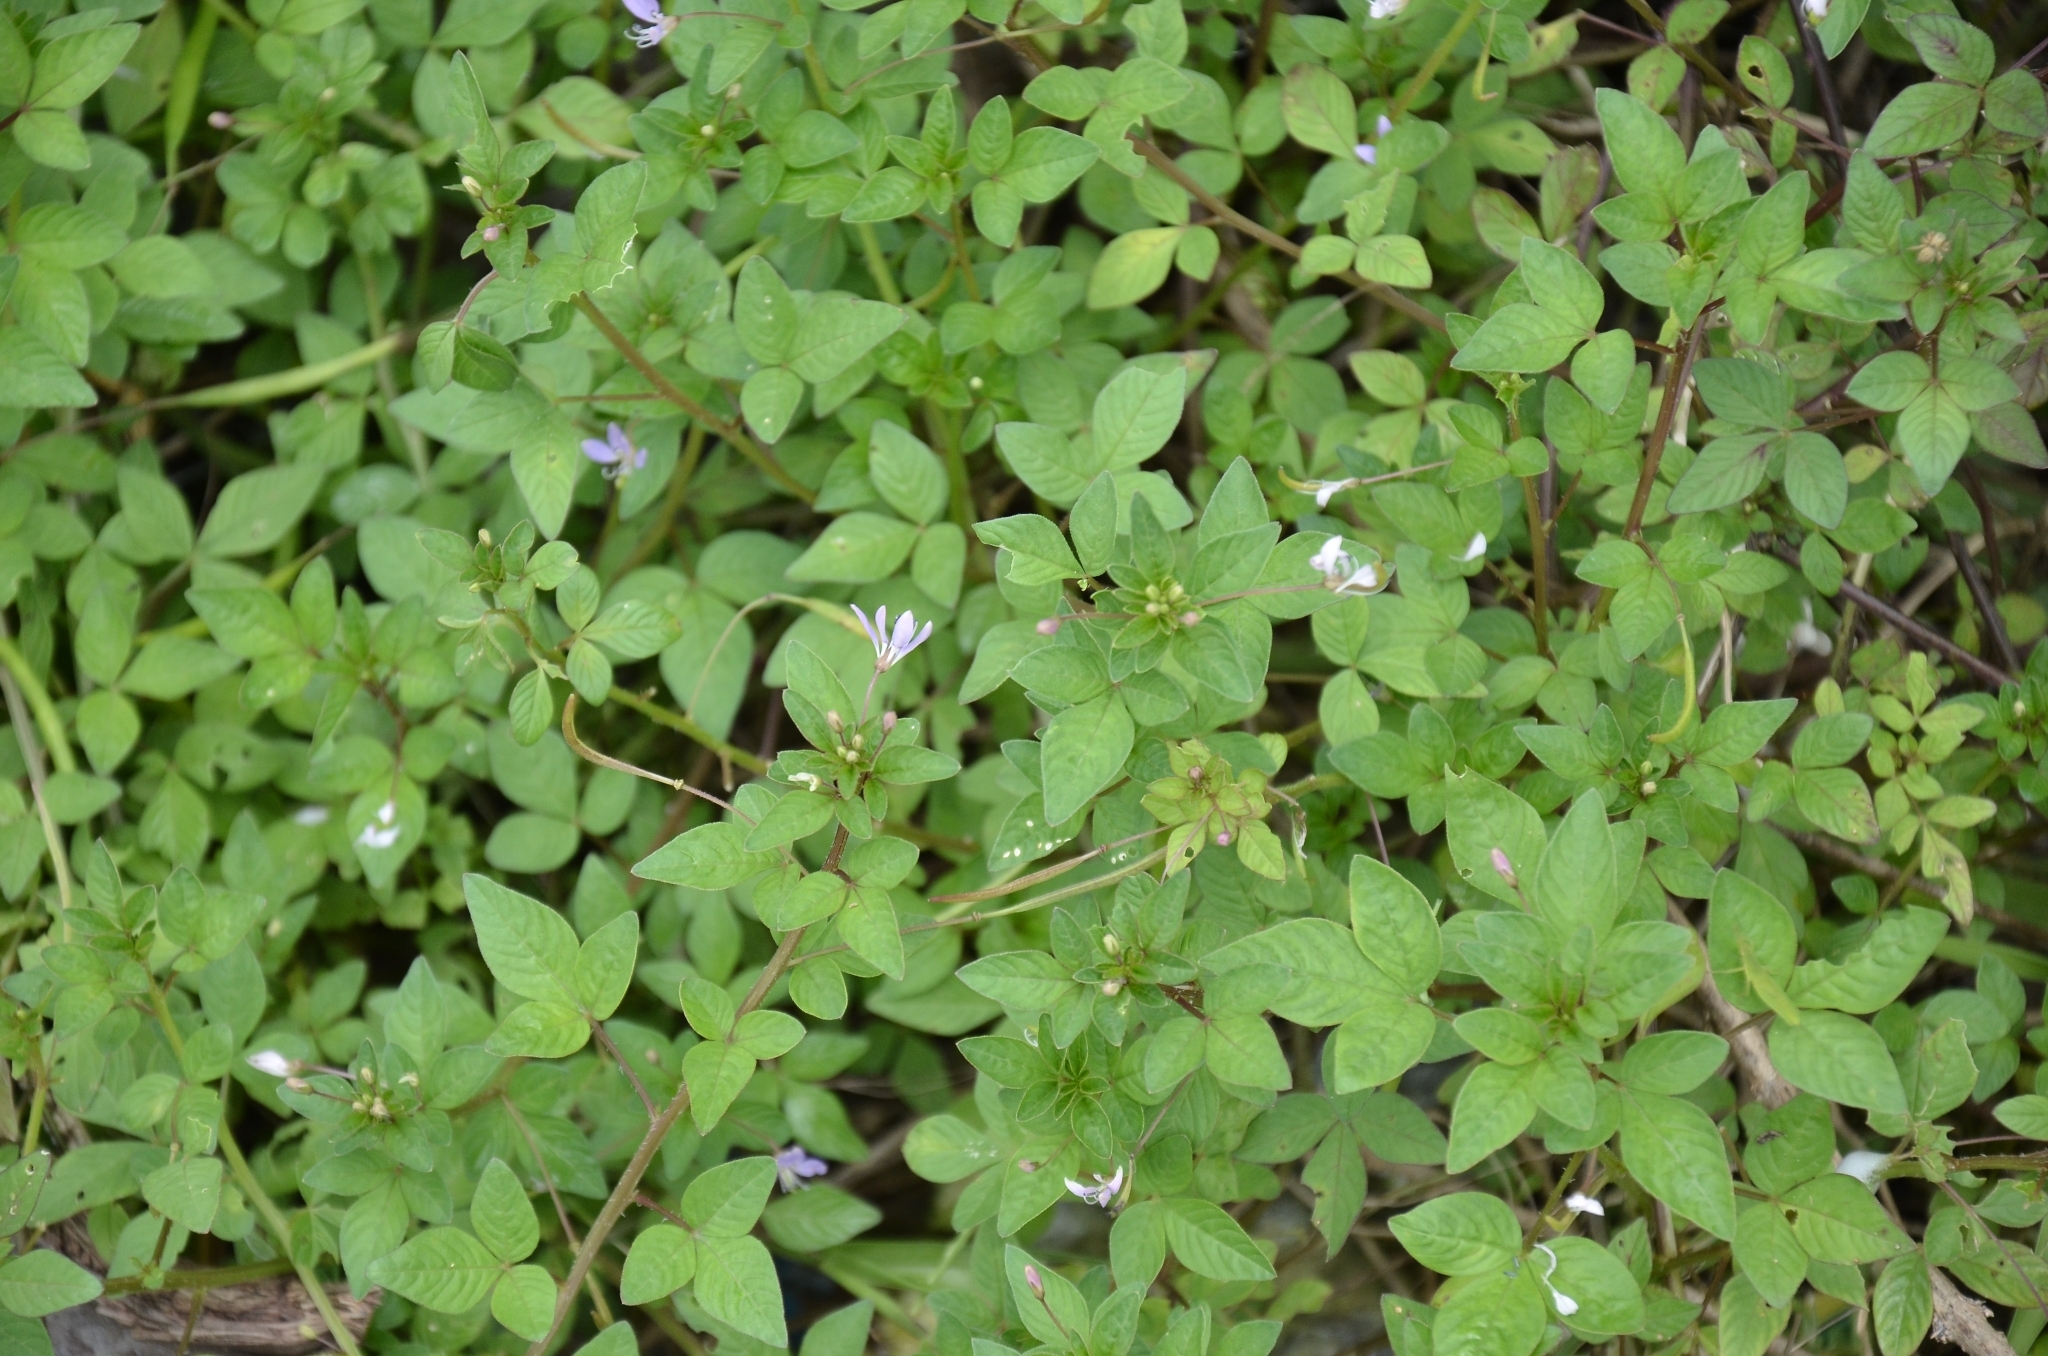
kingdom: Plantae
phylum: Tracheophyta
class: Magnoliopsida
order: Brassicales
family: Cleomaceae
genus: Sieruela
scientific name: Sieruela rutidosperma
